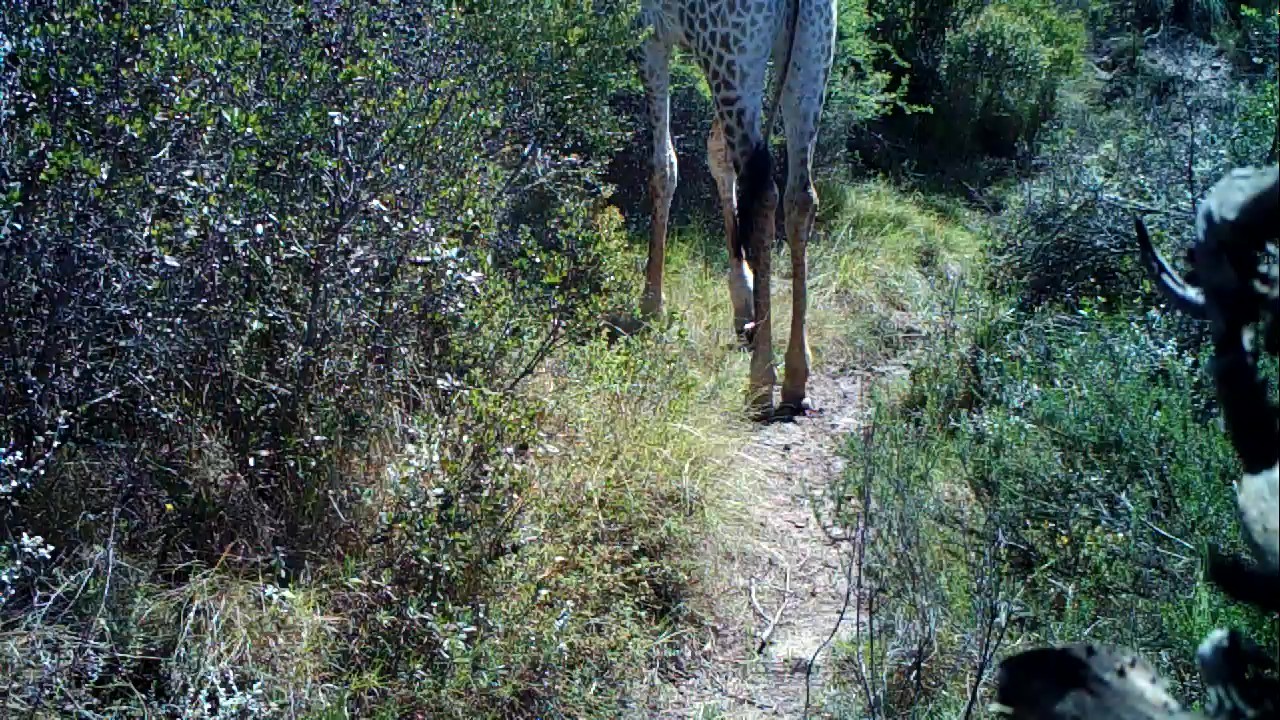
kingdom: Animalia
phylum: Chordata
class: Mammalia
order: Artiodactyla
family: Giraffidae
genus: Giraffa
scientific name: Giraffa giraffa
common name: Southern giraffe
